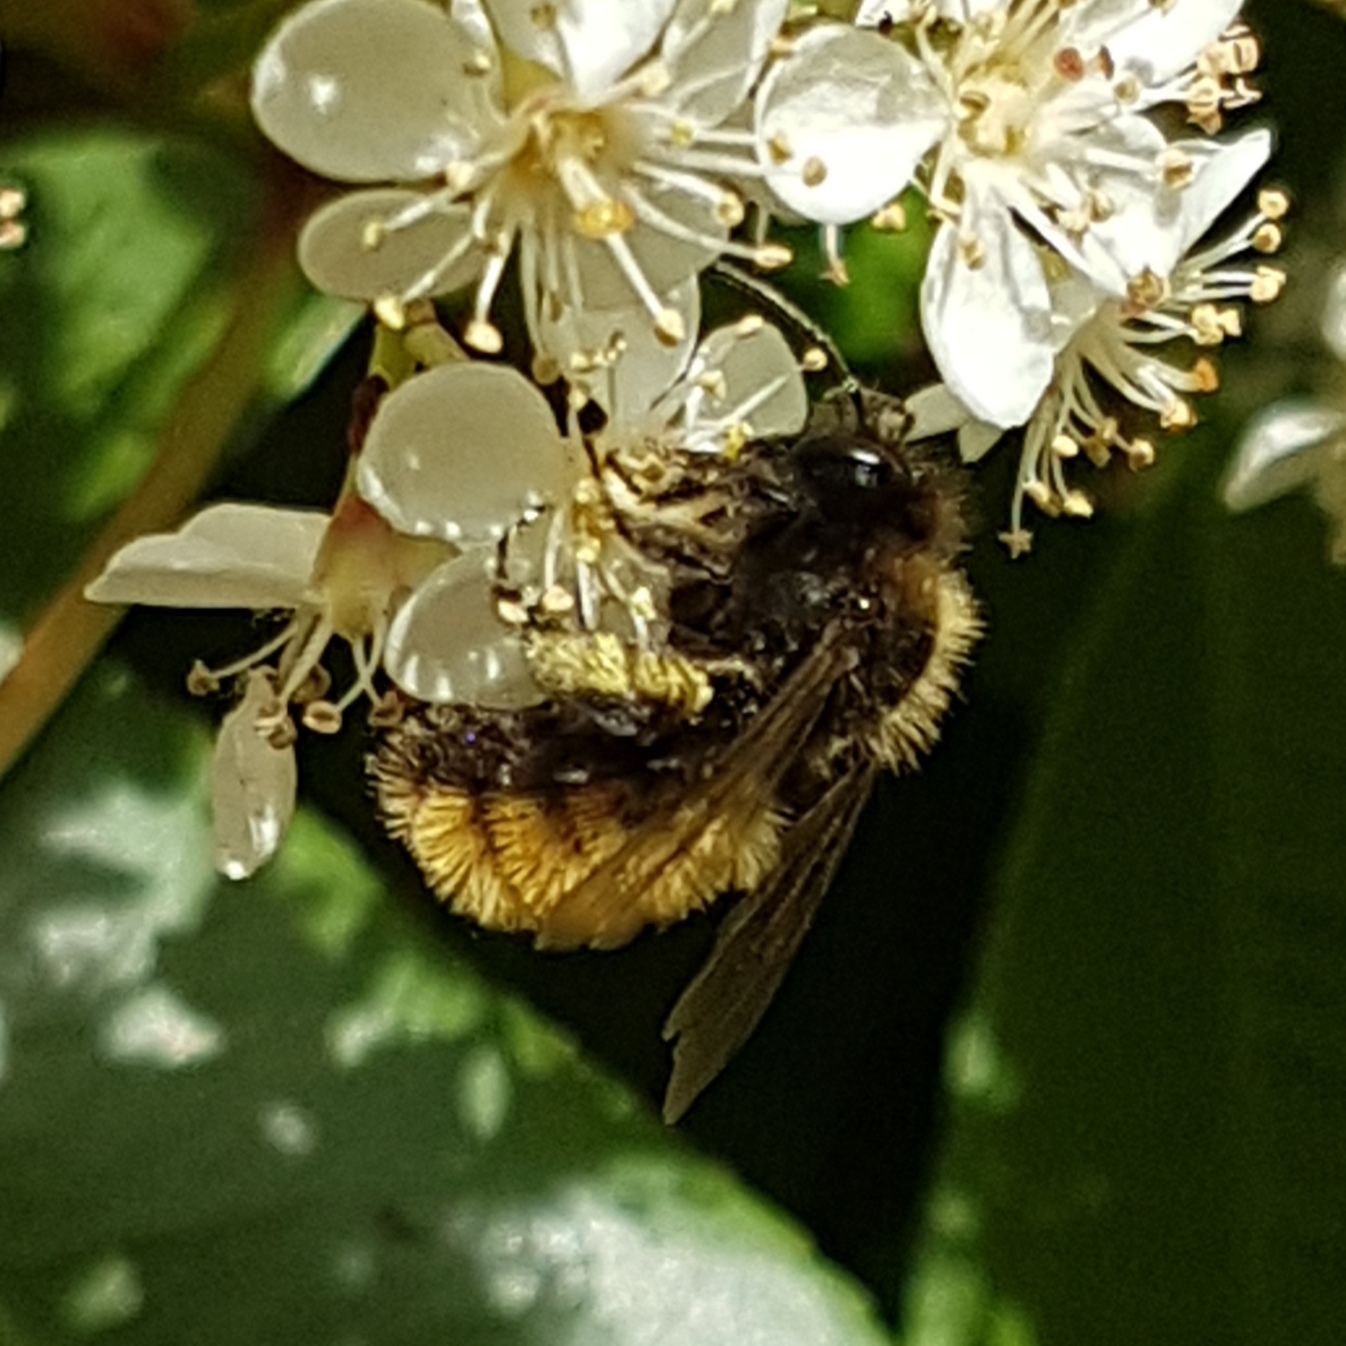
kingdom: Animalia
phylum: Arthropoda
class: Insecta
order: Hymenoptera
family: Andrenidae
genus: Andrena
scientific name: Andrena fulva
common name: Tawny mining bee
